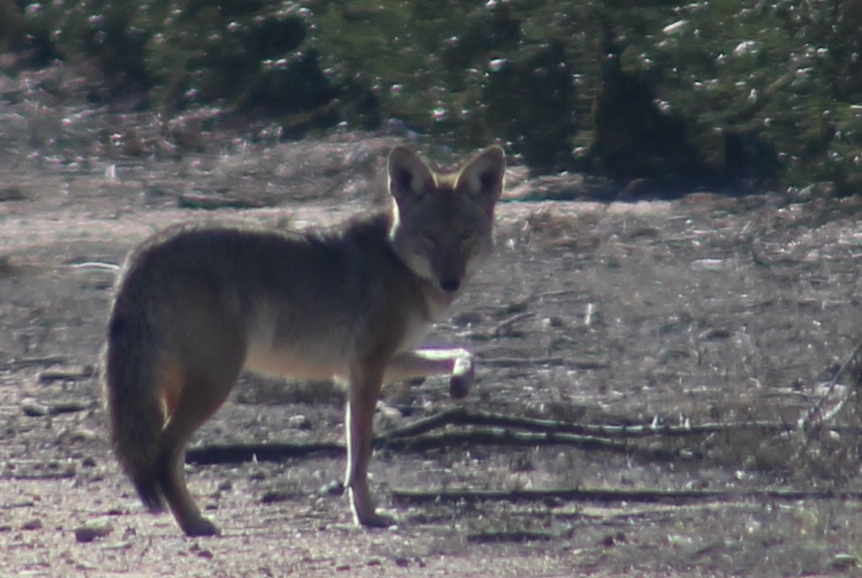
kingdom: Animalia
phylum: Chordata
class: Mammalia
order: Carnivora
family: Canidae
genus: Canis
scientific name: Canis latrans
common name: Coyote
